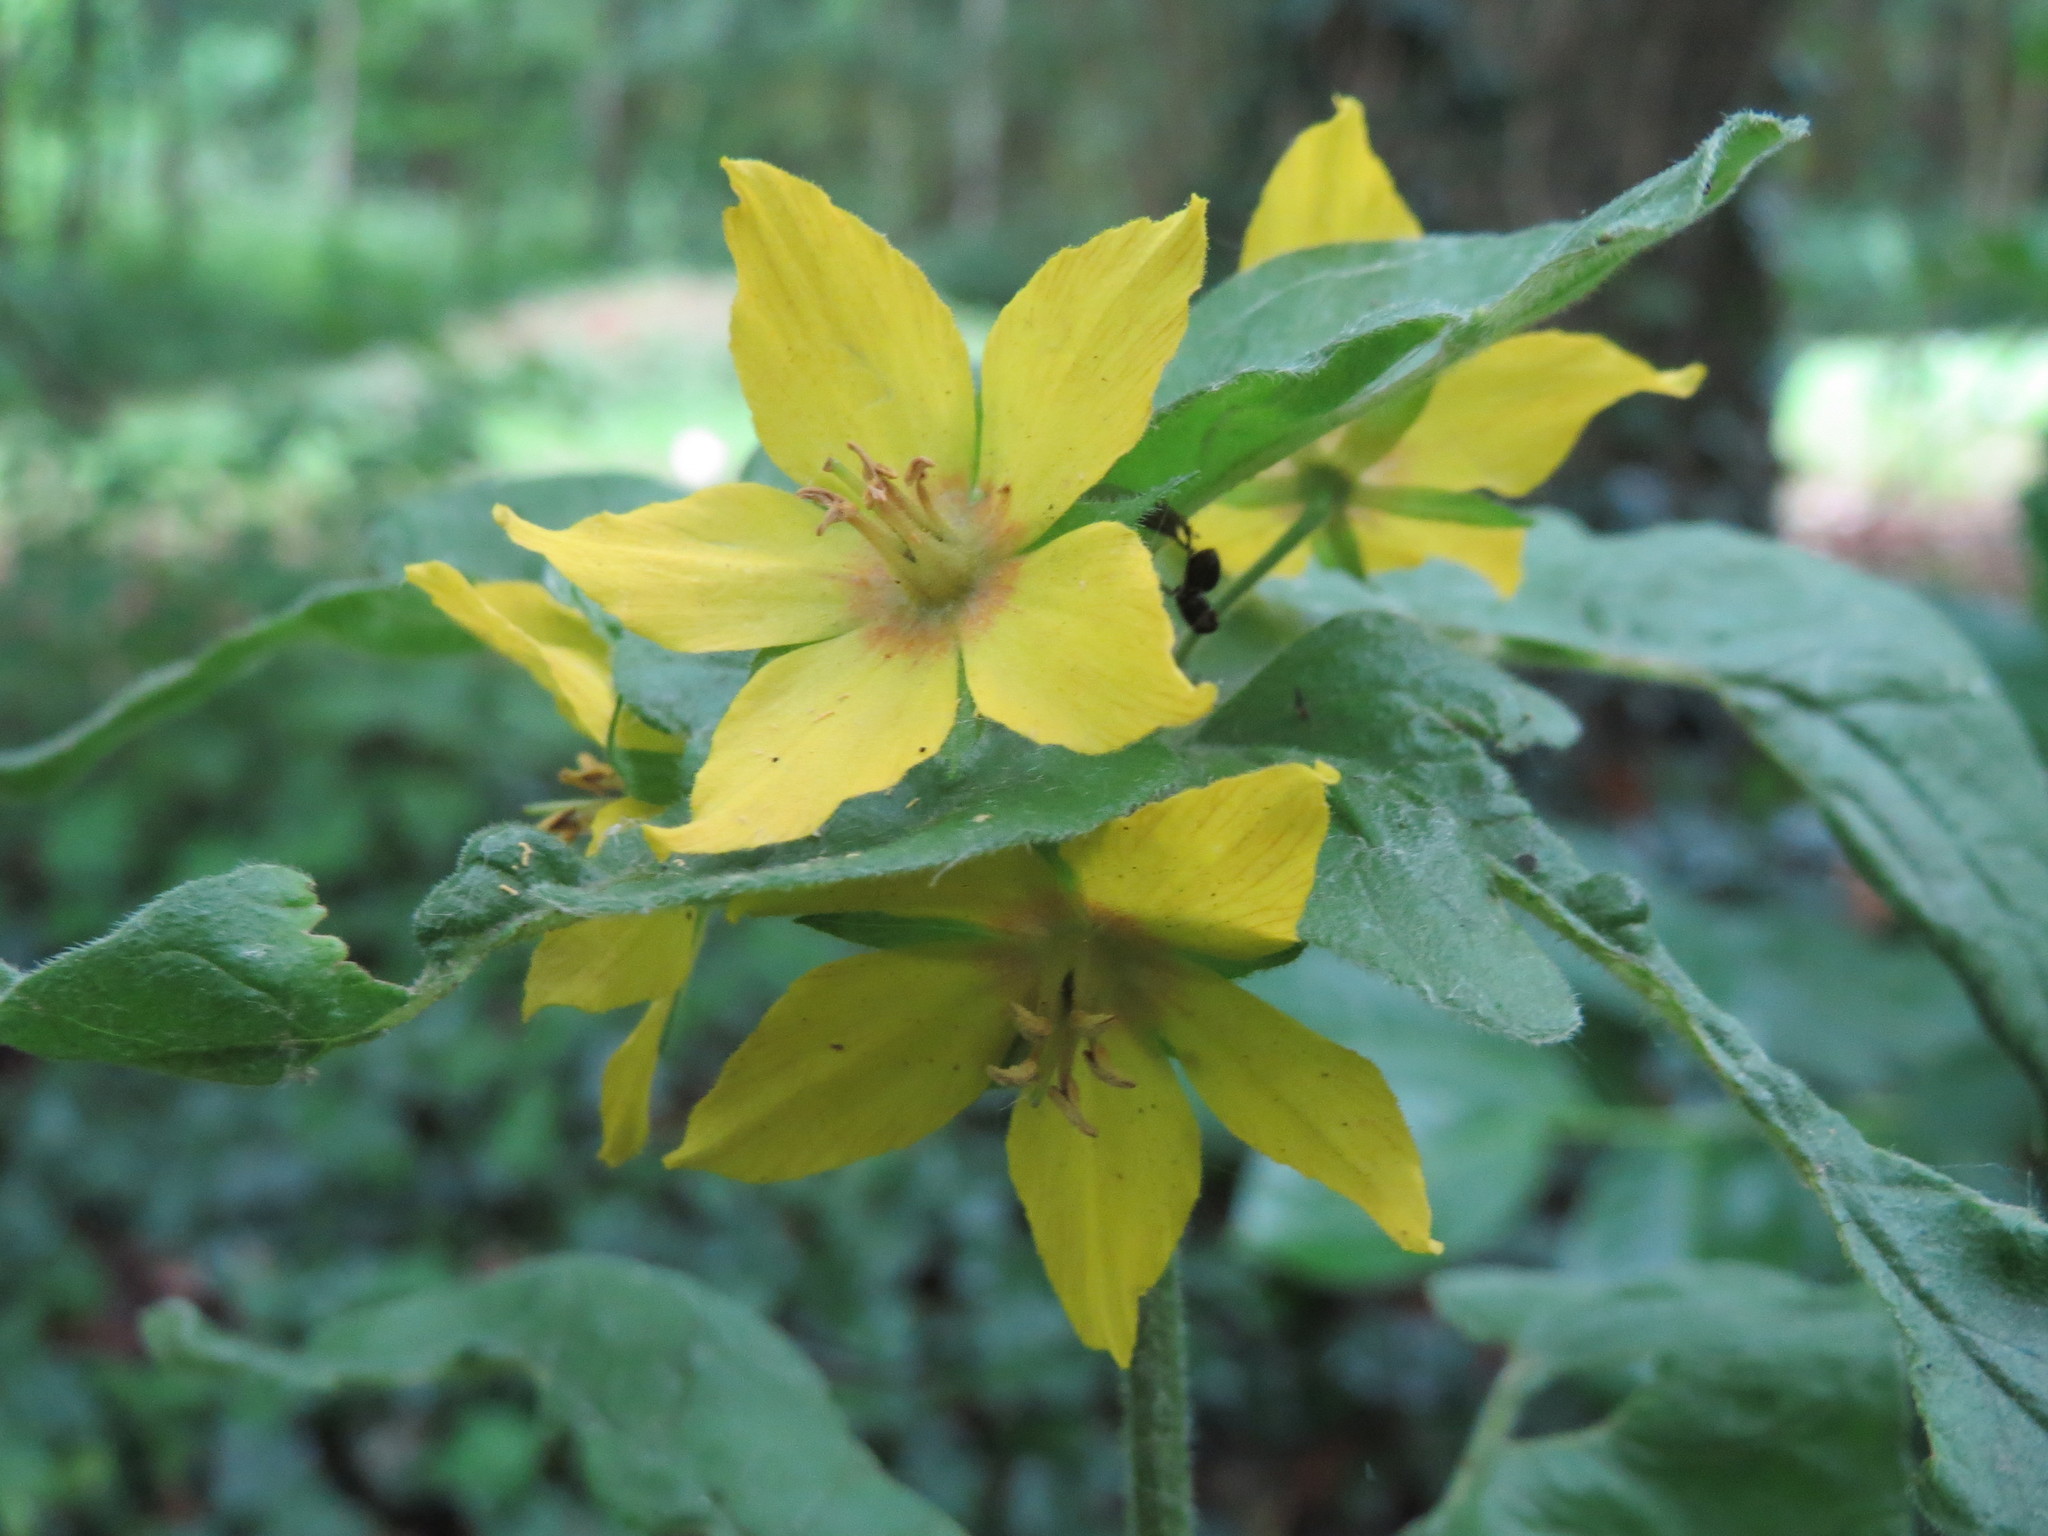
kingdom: Plantae
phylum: Tracheophyta
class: Magnoliopsida
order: Ericales
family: Primulaceae
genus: Lysimachia
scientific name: Lysimachia punctata
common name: Dotted loosestrife
